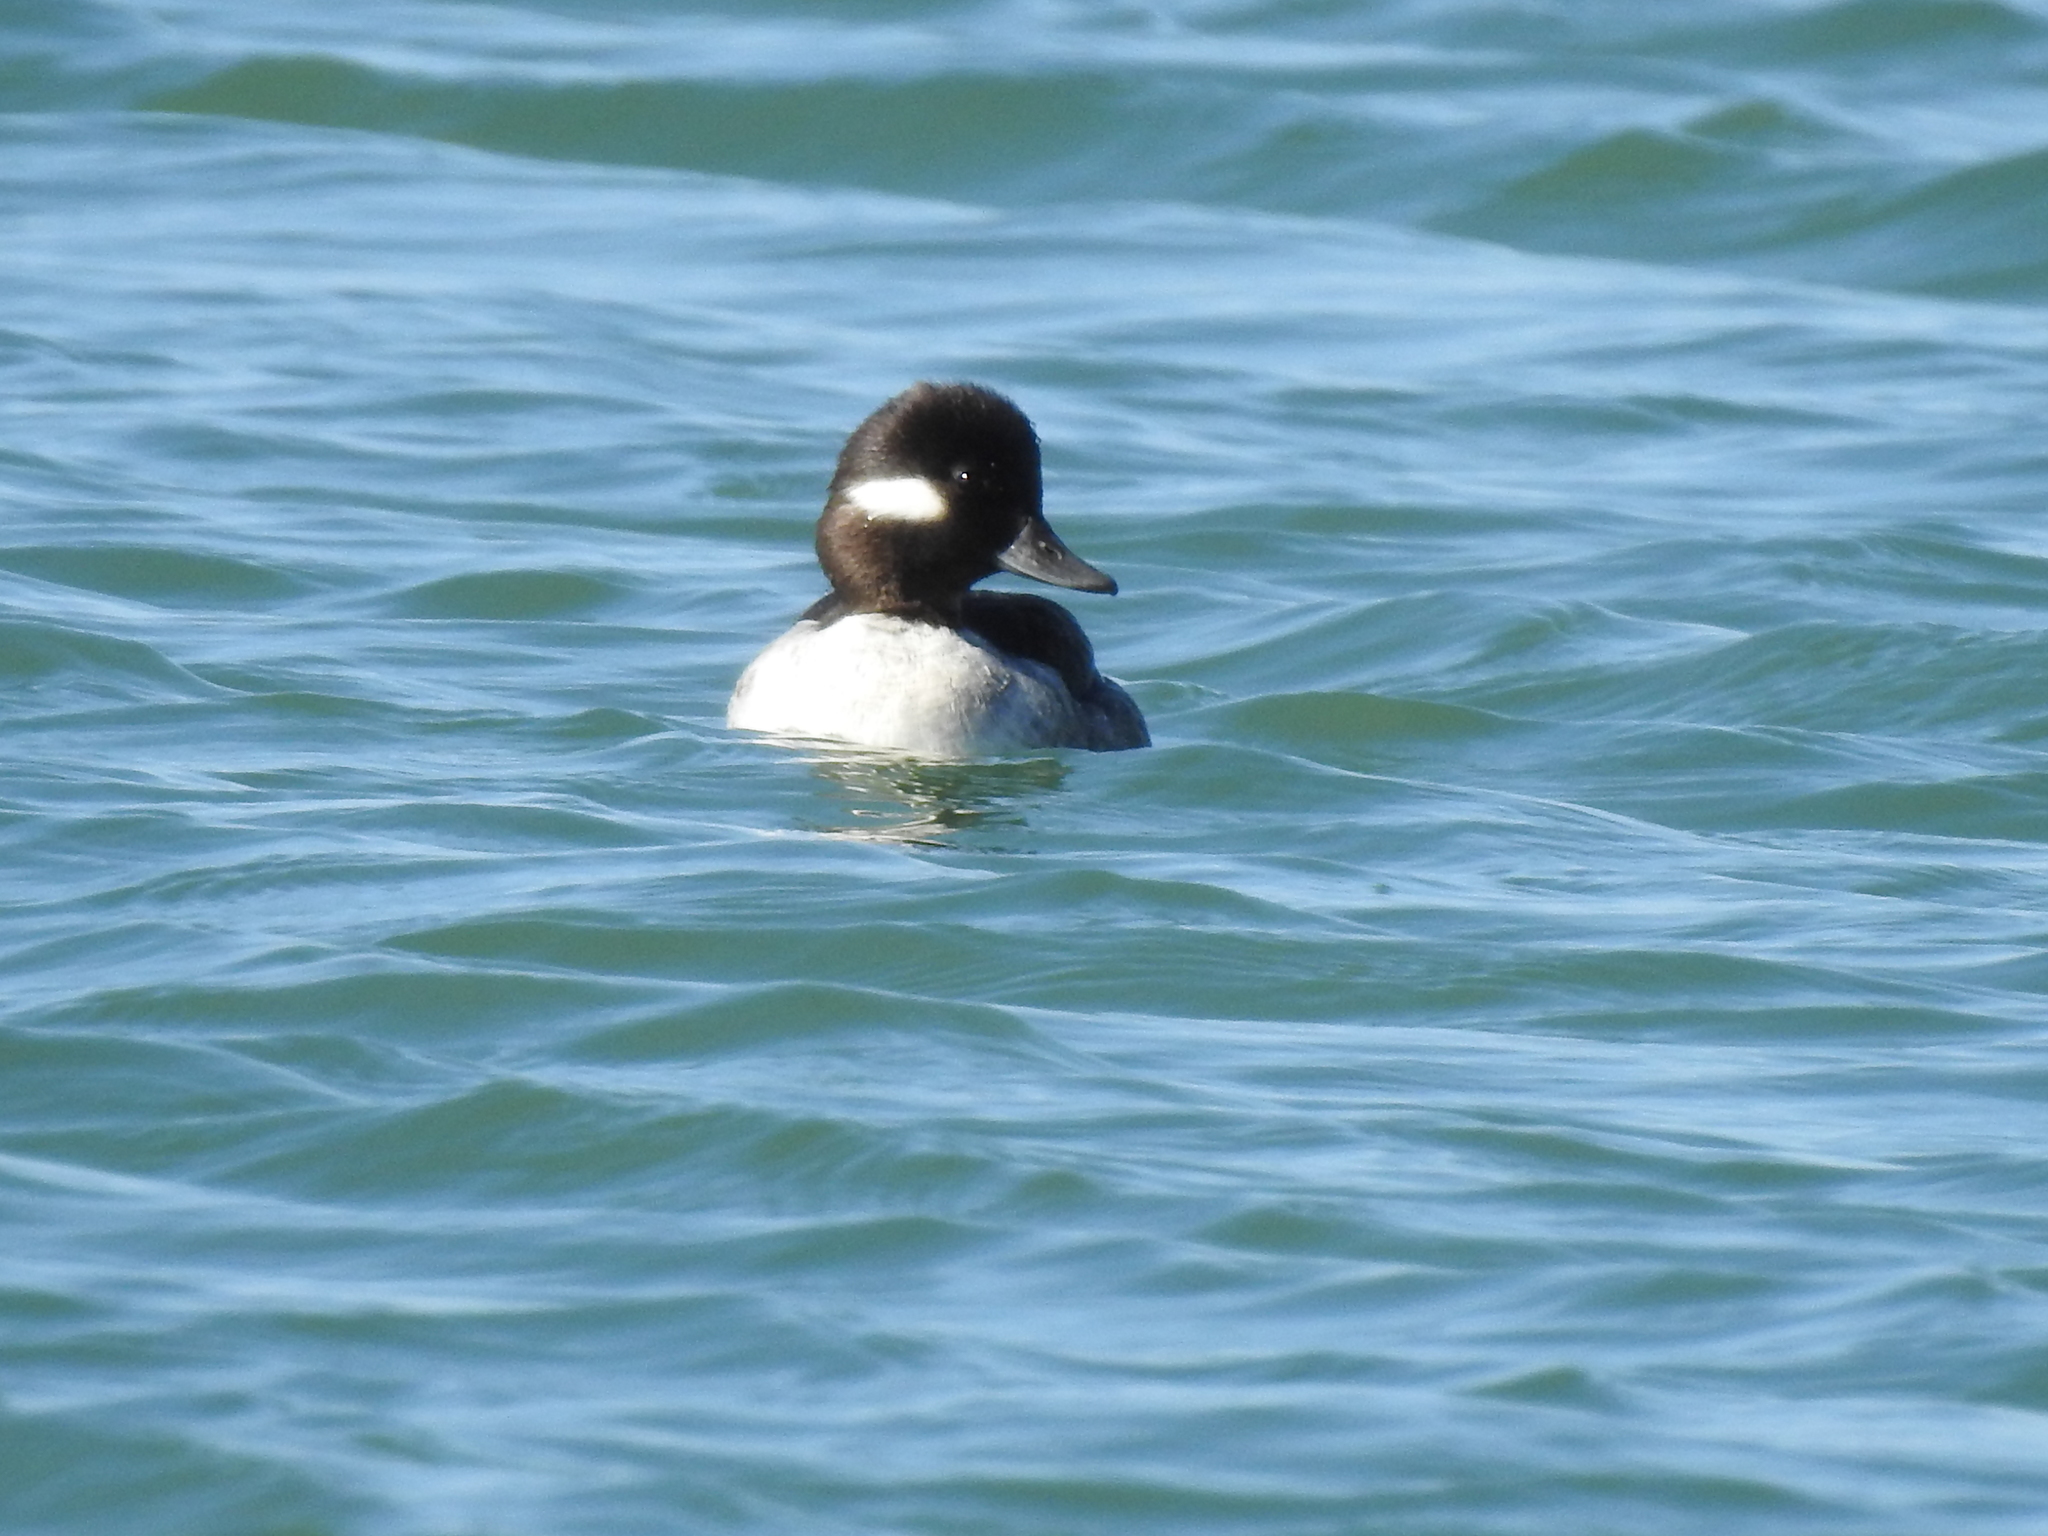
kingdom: Animalia
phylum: Chordata
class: Aves
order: Anseriformes
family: Anatidae
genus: Bucephala
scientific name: Bucephala albeola
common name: Bufflehead
